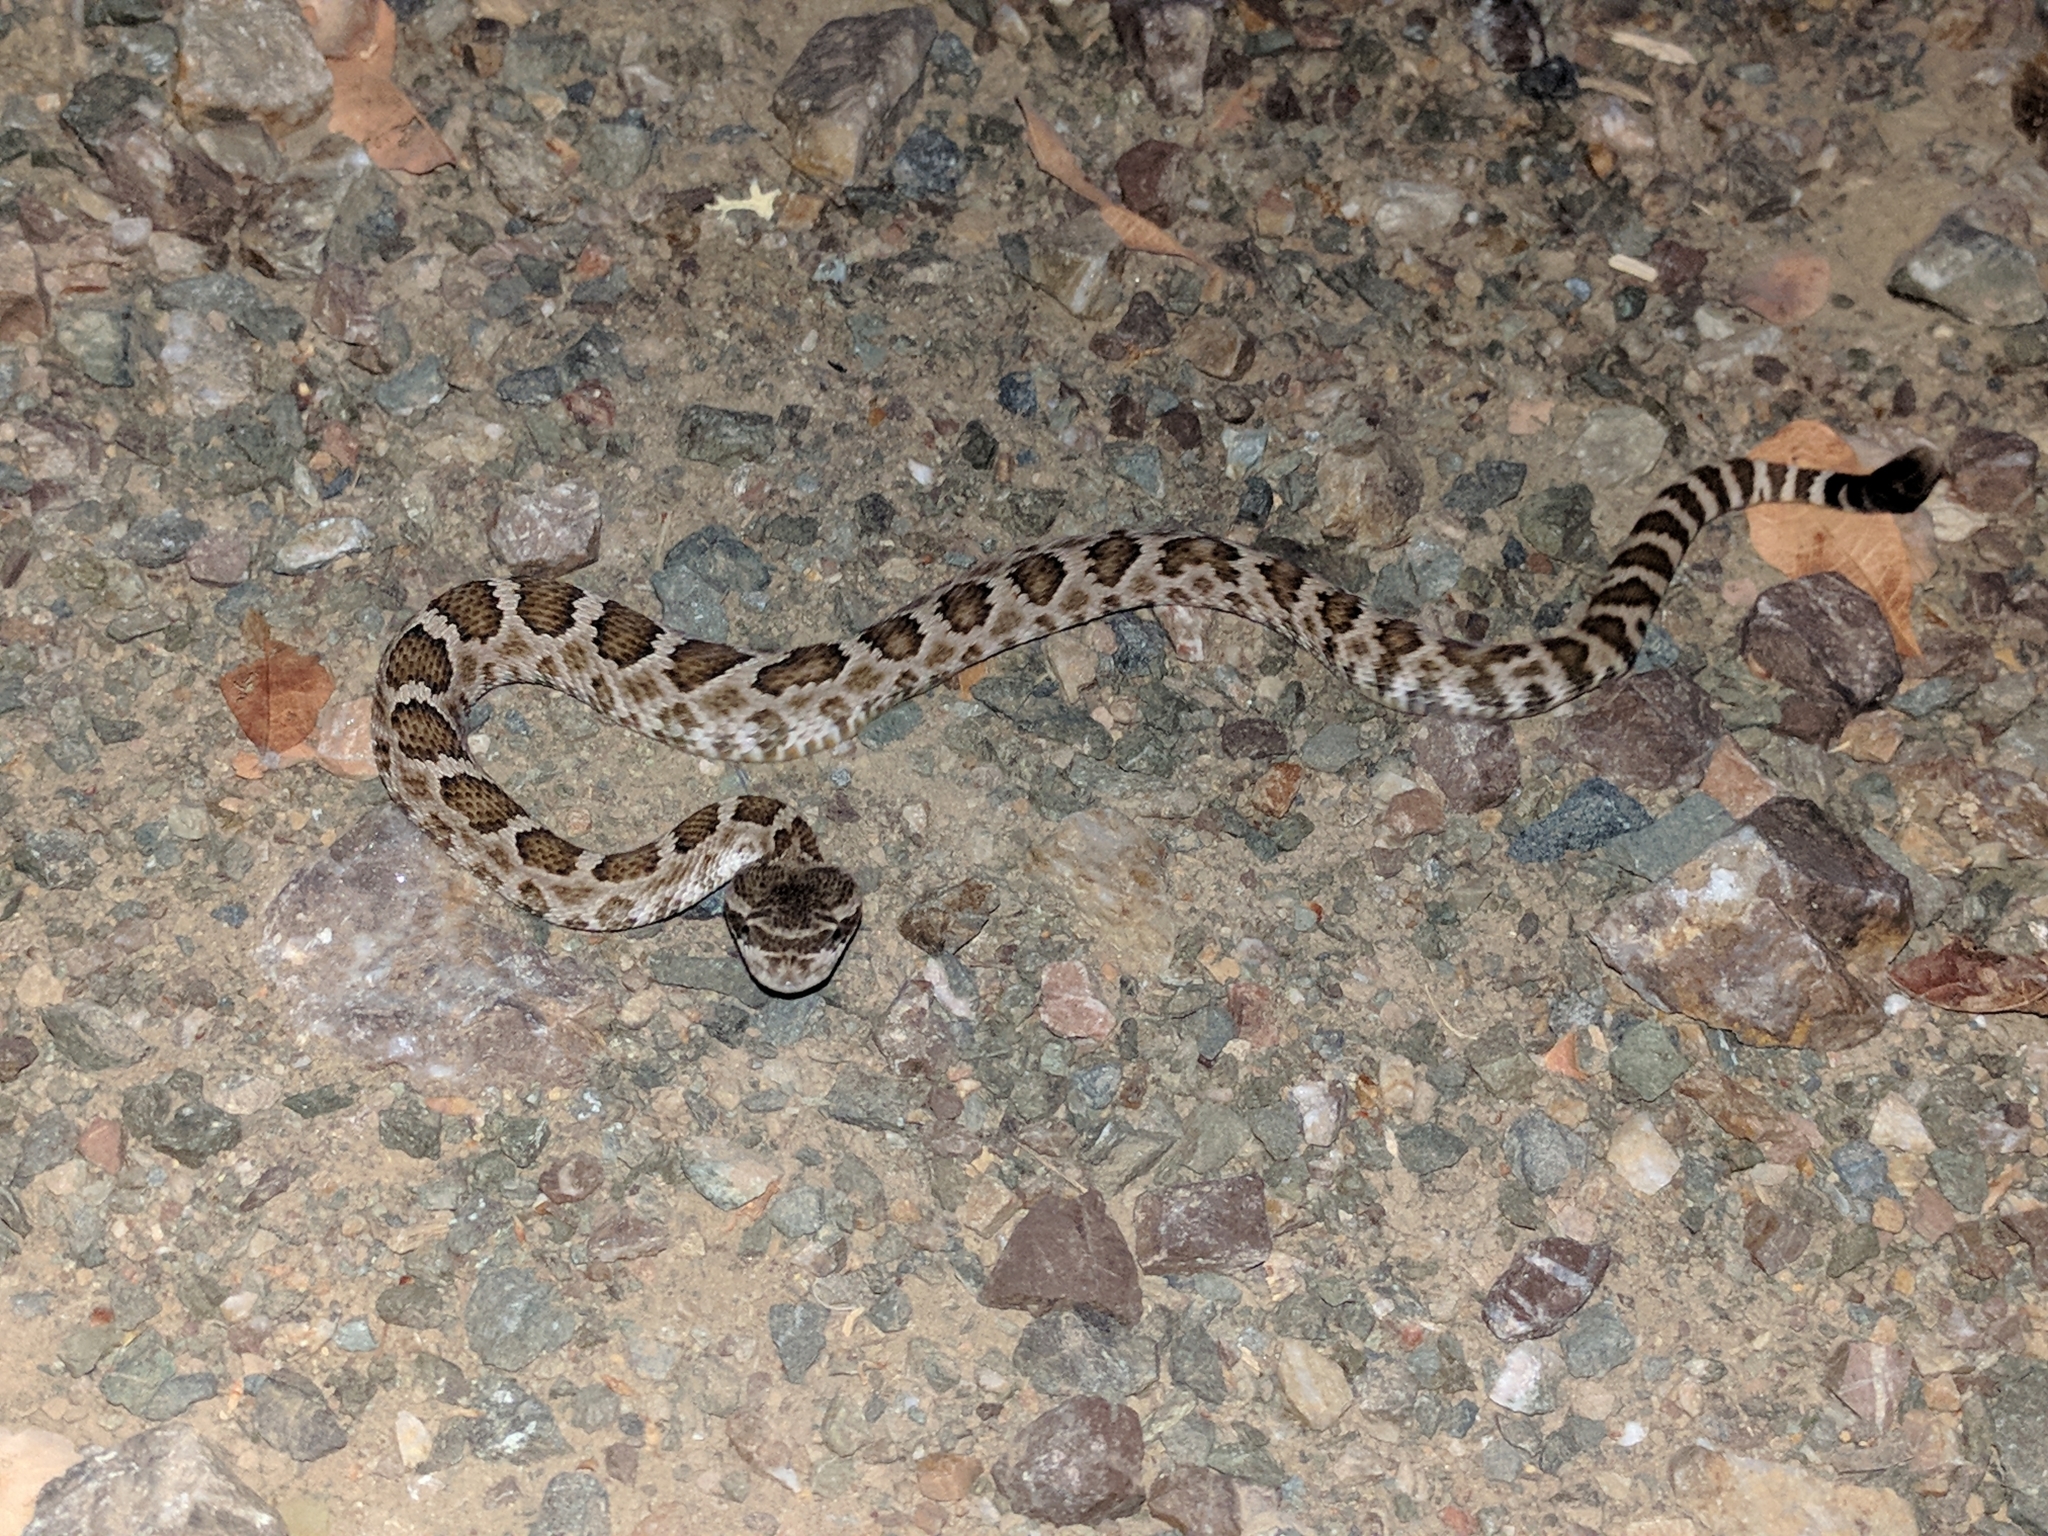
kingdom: Animalia
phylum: Chordata
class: Squamata
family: Viperidae
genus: Crotalus
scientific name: Crotalus oreganus
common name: Abyssus
